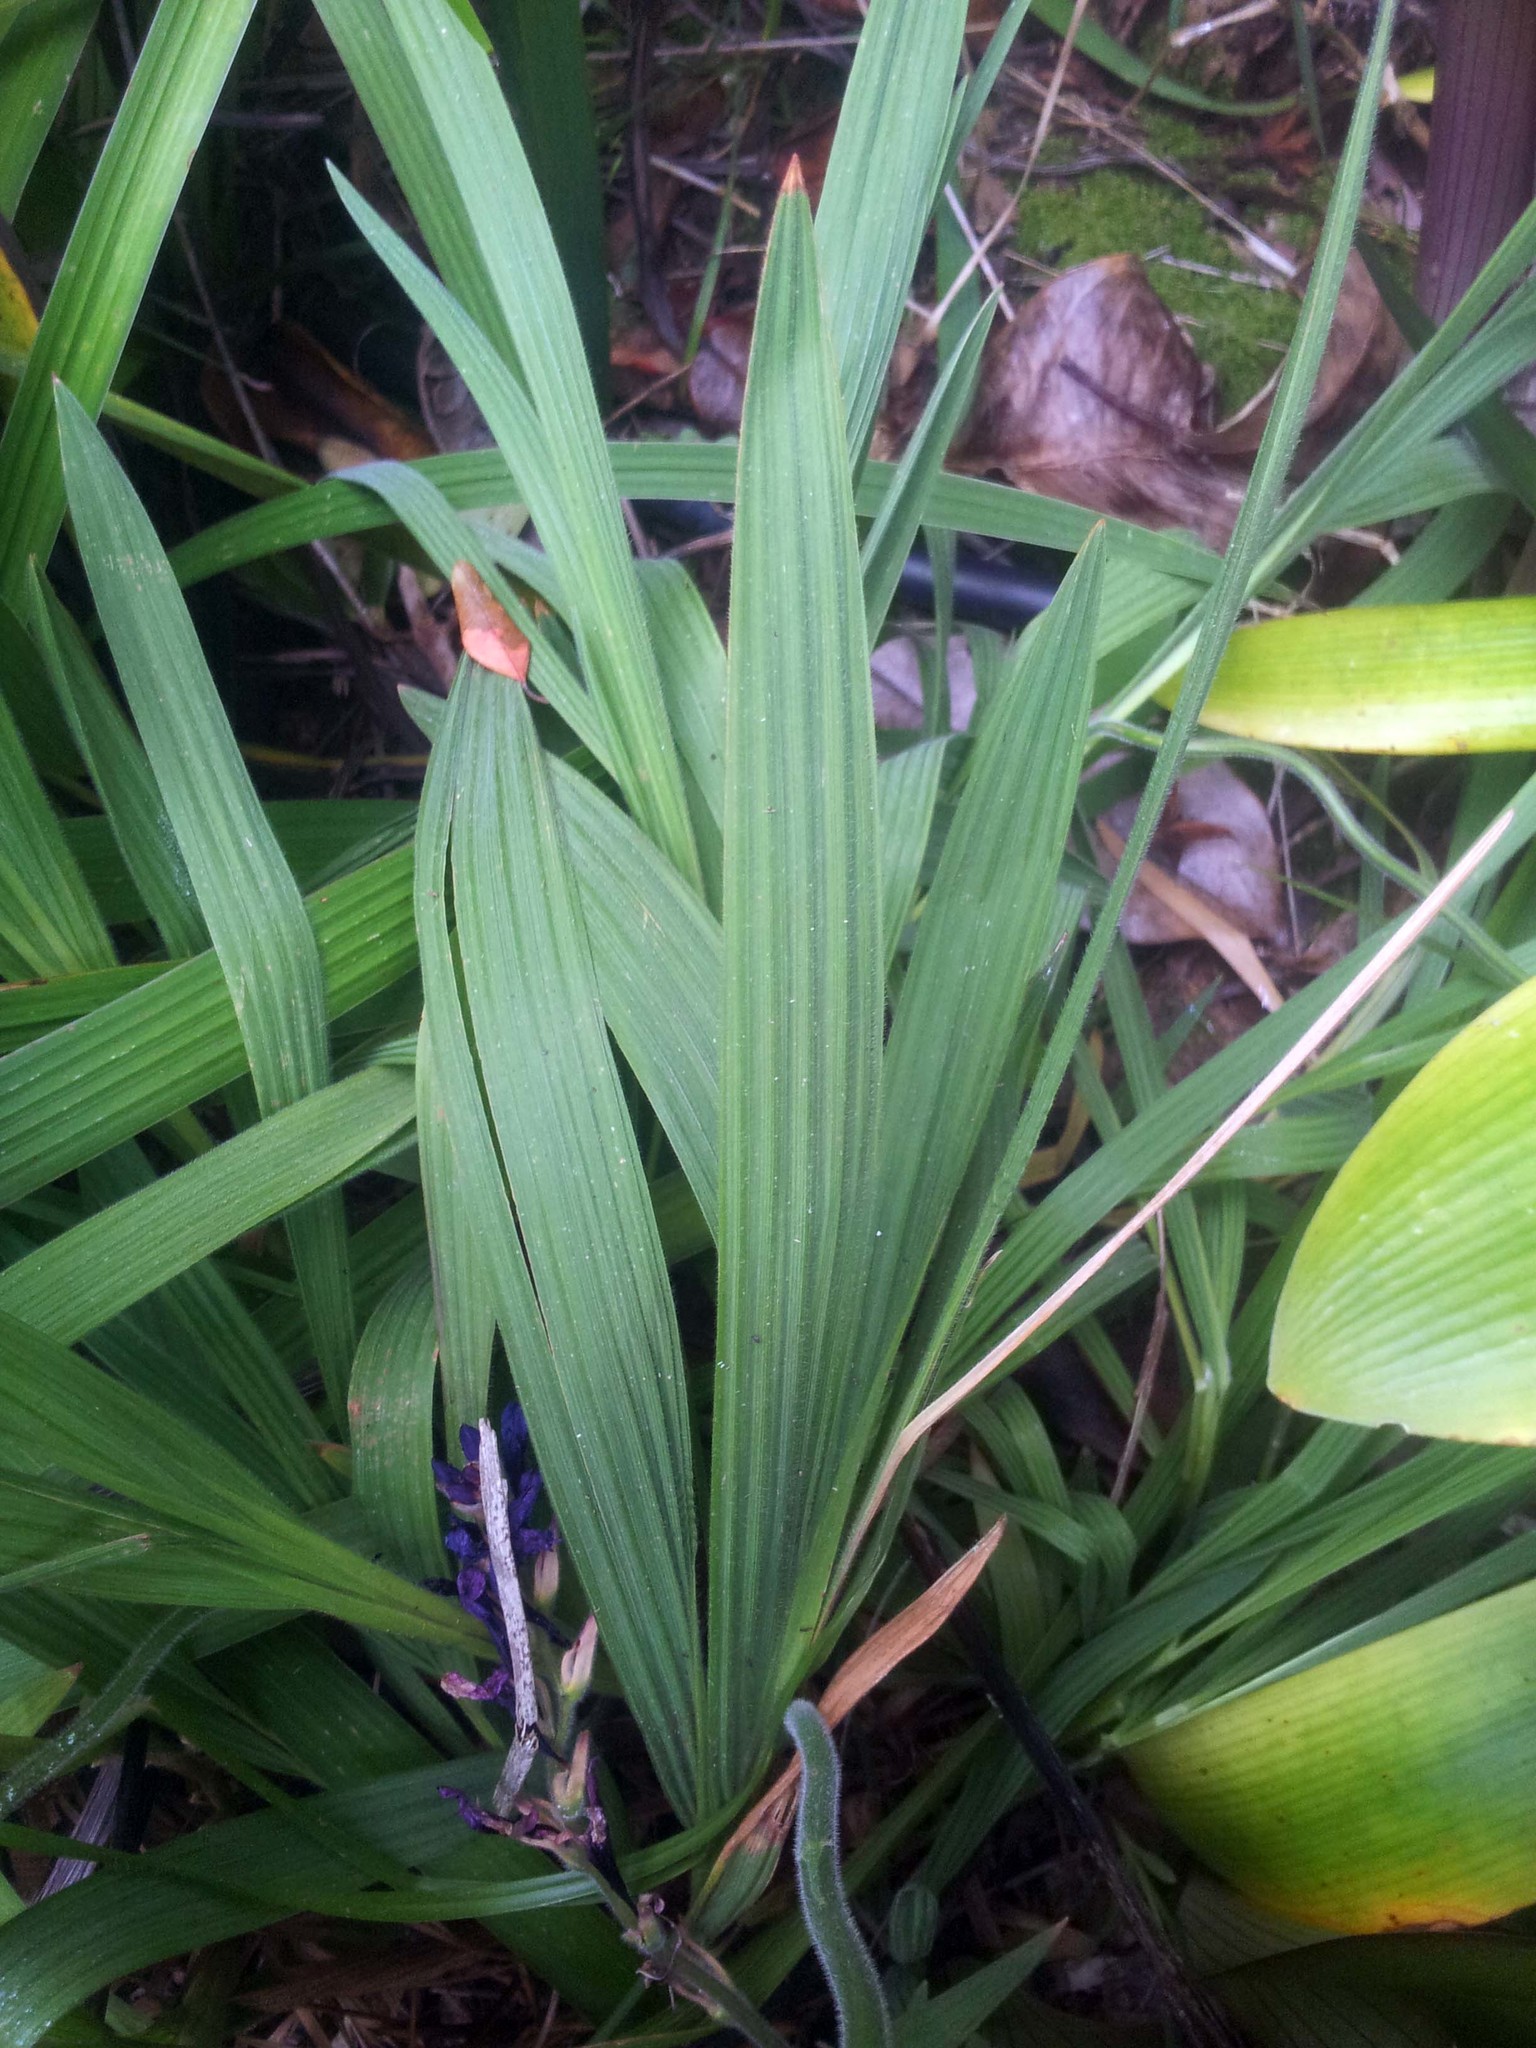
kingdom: Plantae
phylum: Tracheophyta
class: Liliopsida
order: Asparagales
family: Iridaceae
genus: Babiana
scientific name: Babiana angustifolia
